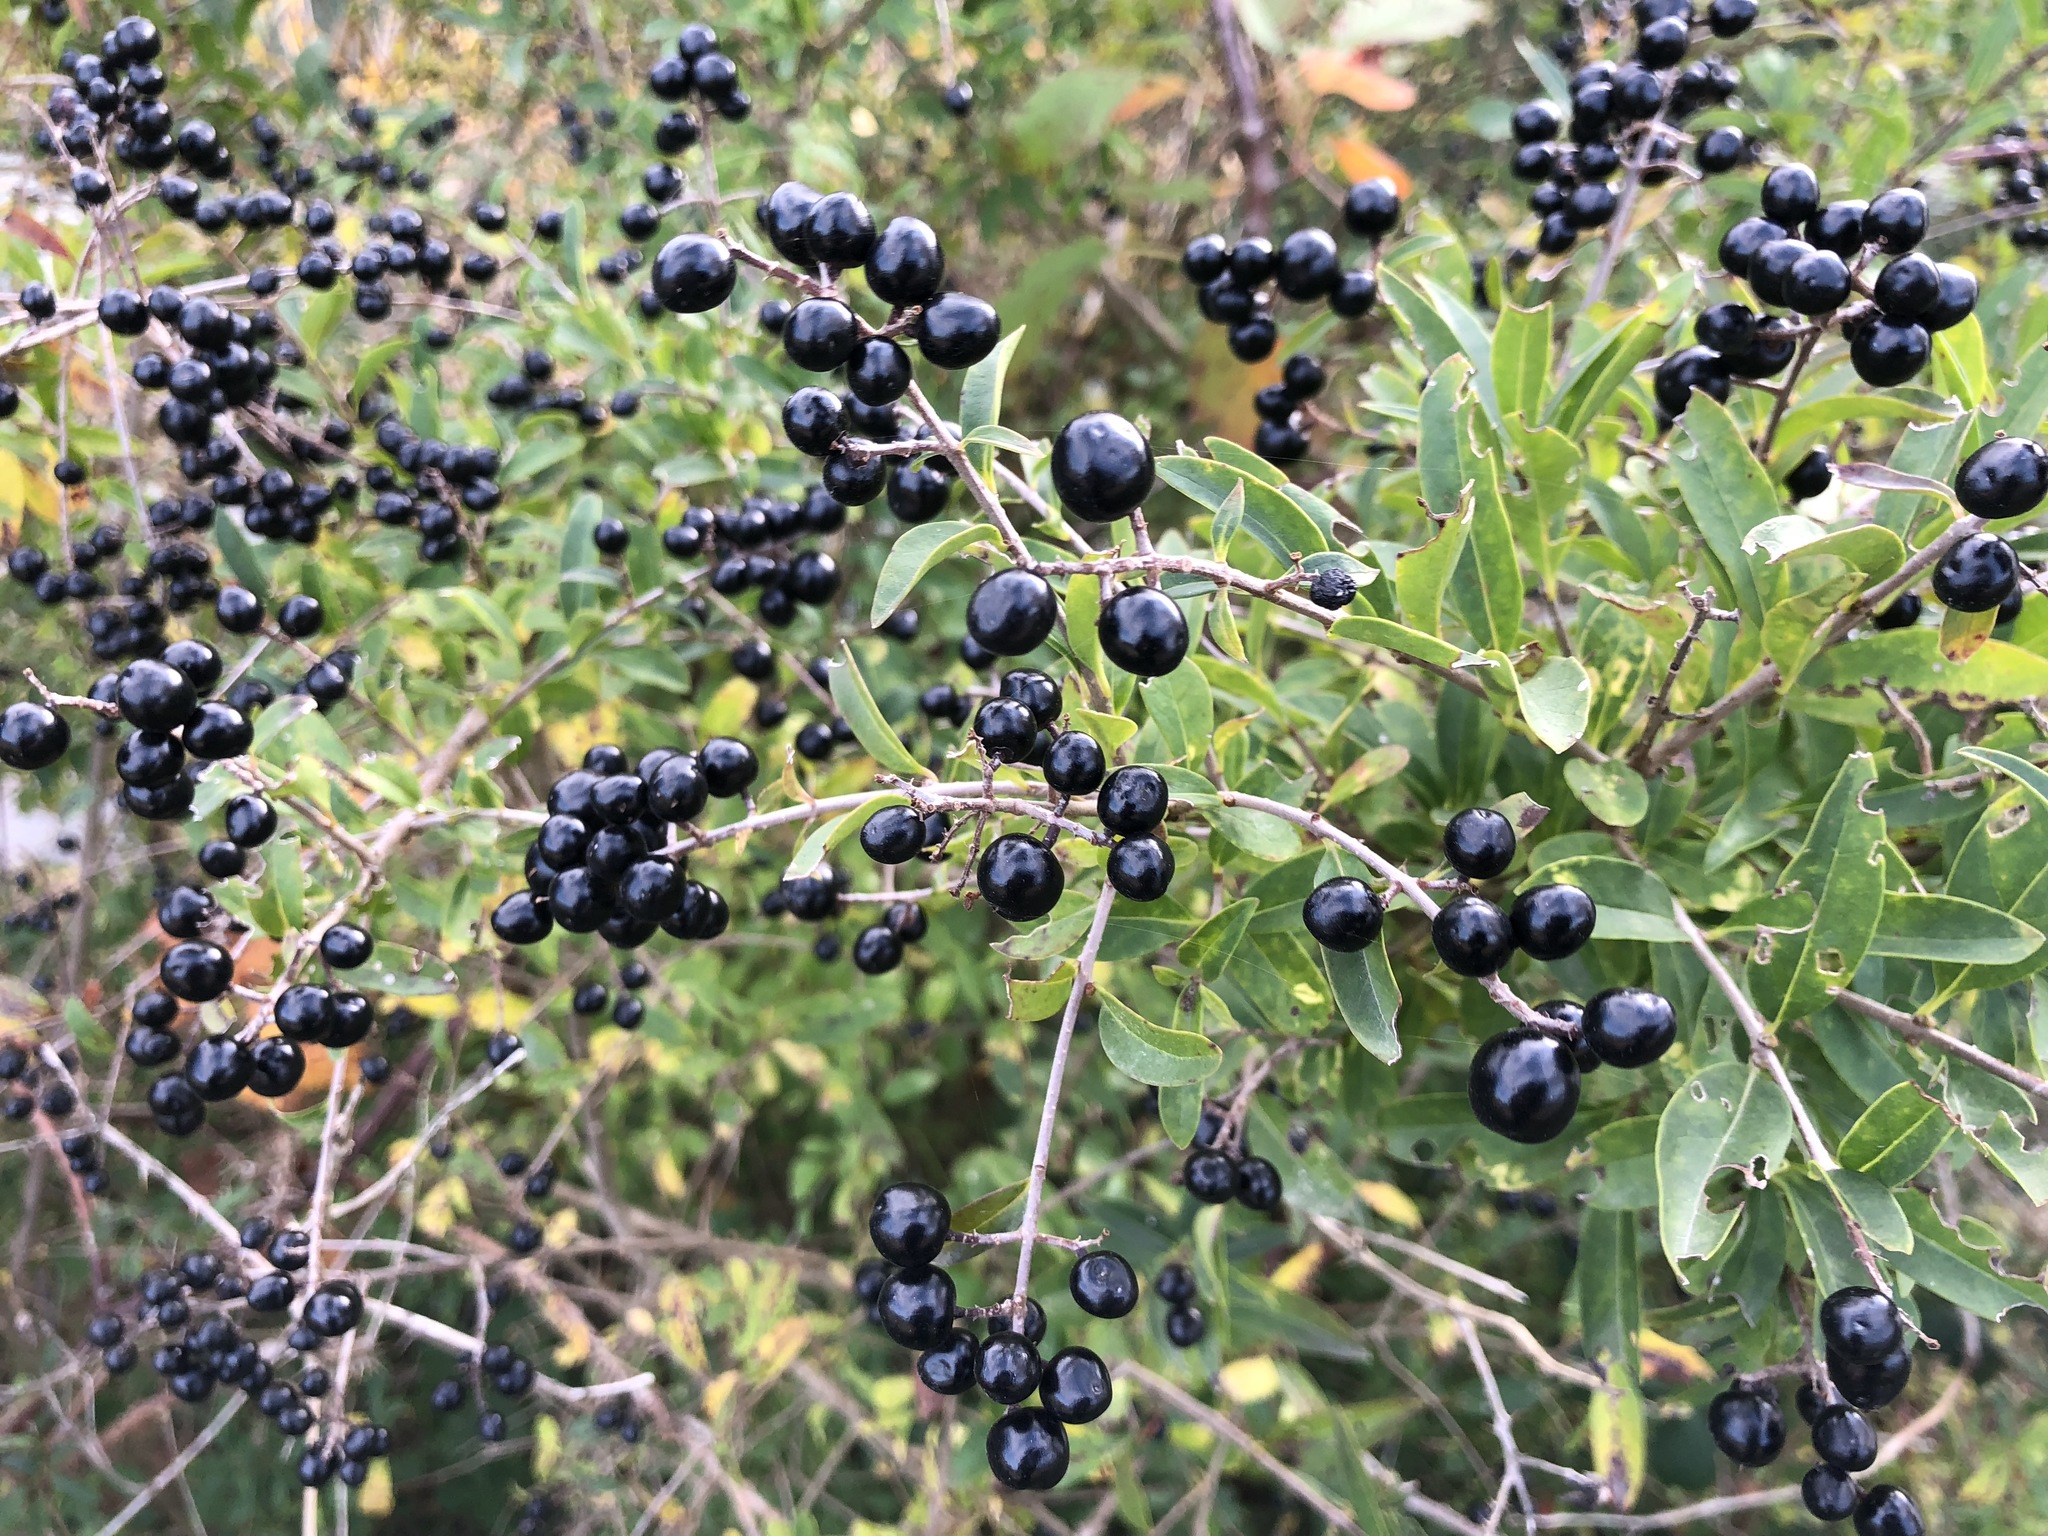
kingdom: Plantae
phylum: Tracheophyta
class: Magnoliopsida
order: Lamiales
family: Oleaceae
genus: Ligustrum
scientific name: Ligustrum vulgare
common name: Wild privet
